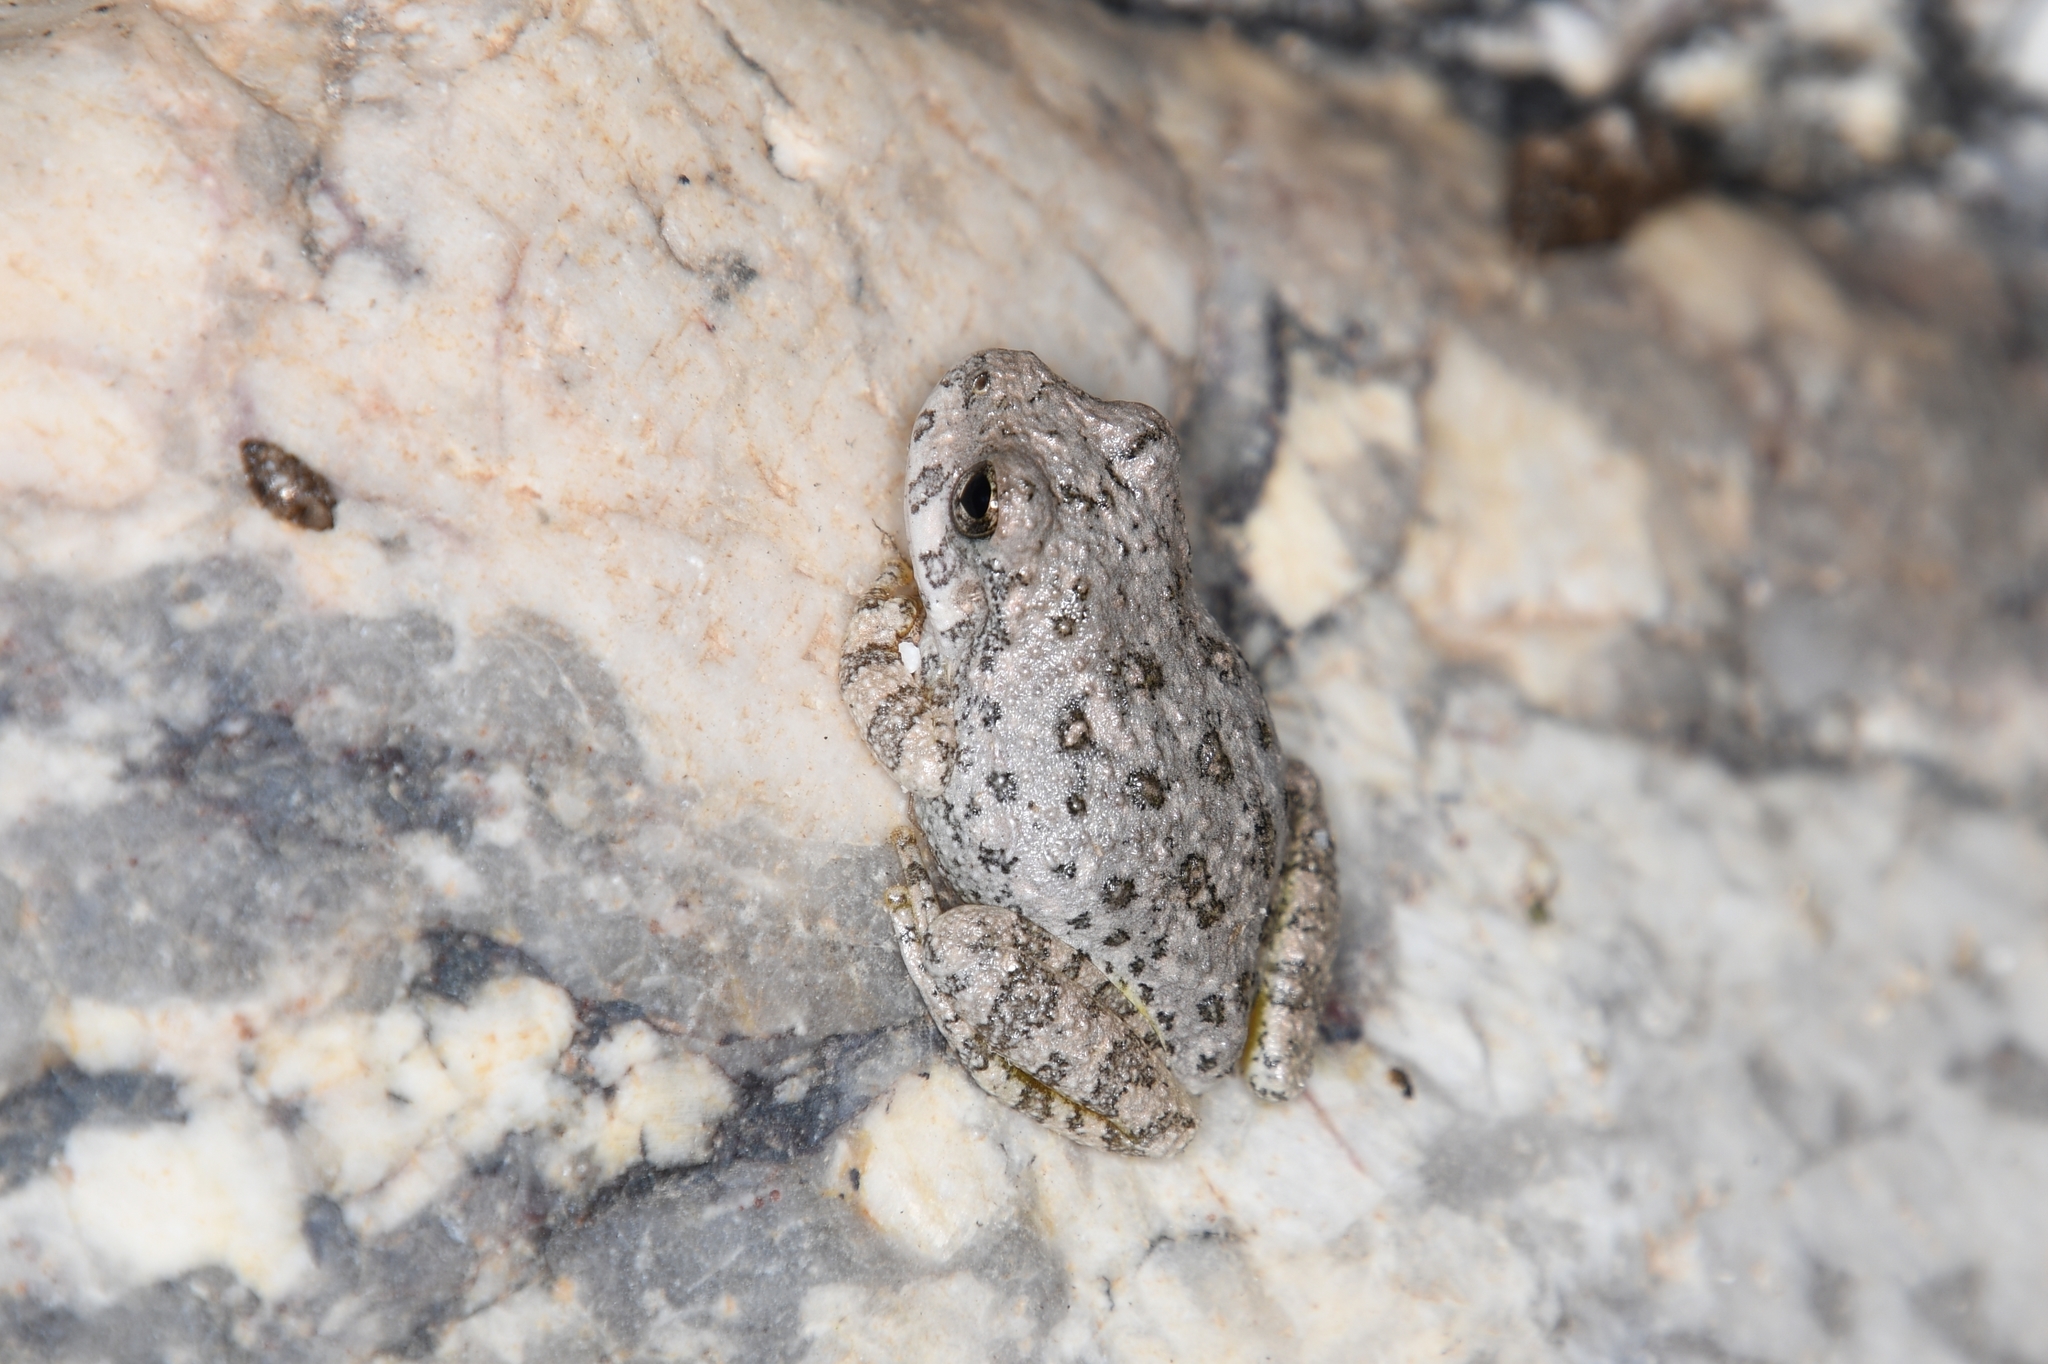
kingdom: Animalia
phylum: Chordata
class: Amphibia
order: Anura
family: Hylidae
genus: Dryophytes
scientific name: Dryophytes arenicolor
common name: Canyon treefrog
